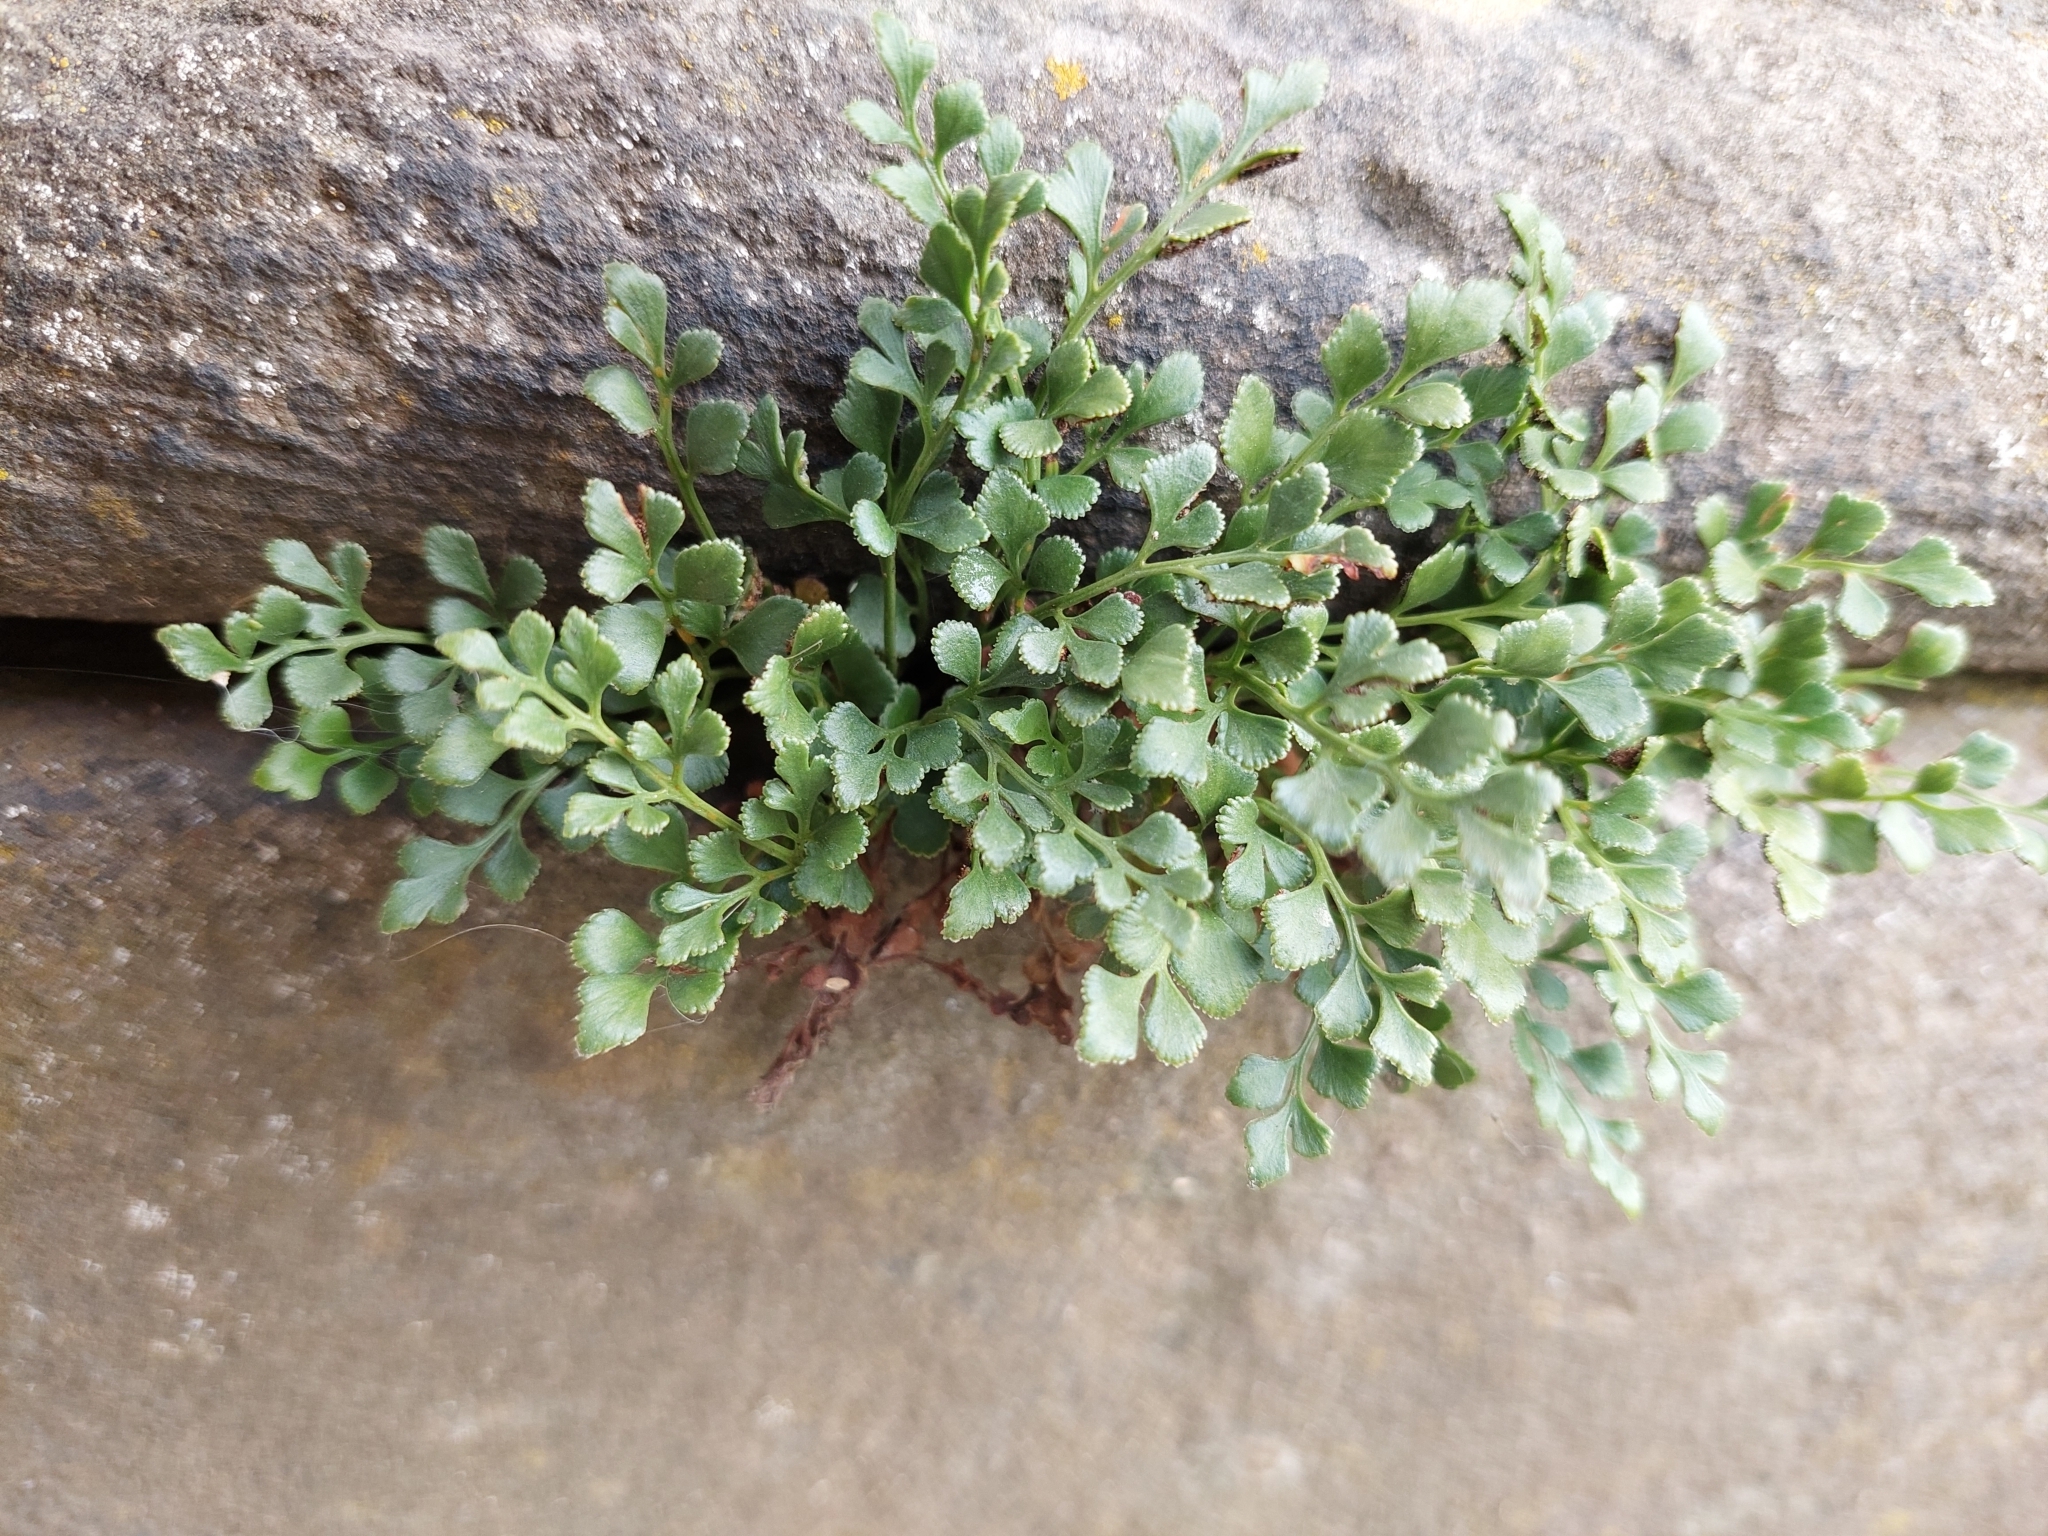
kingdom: Plantae
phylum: Tracheophyta
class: Polypodiopsida
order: Polypodiales
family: Aspleniaceae
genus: Asplenium
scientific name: Asplenium ruta-muraria
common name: Wall-rue
